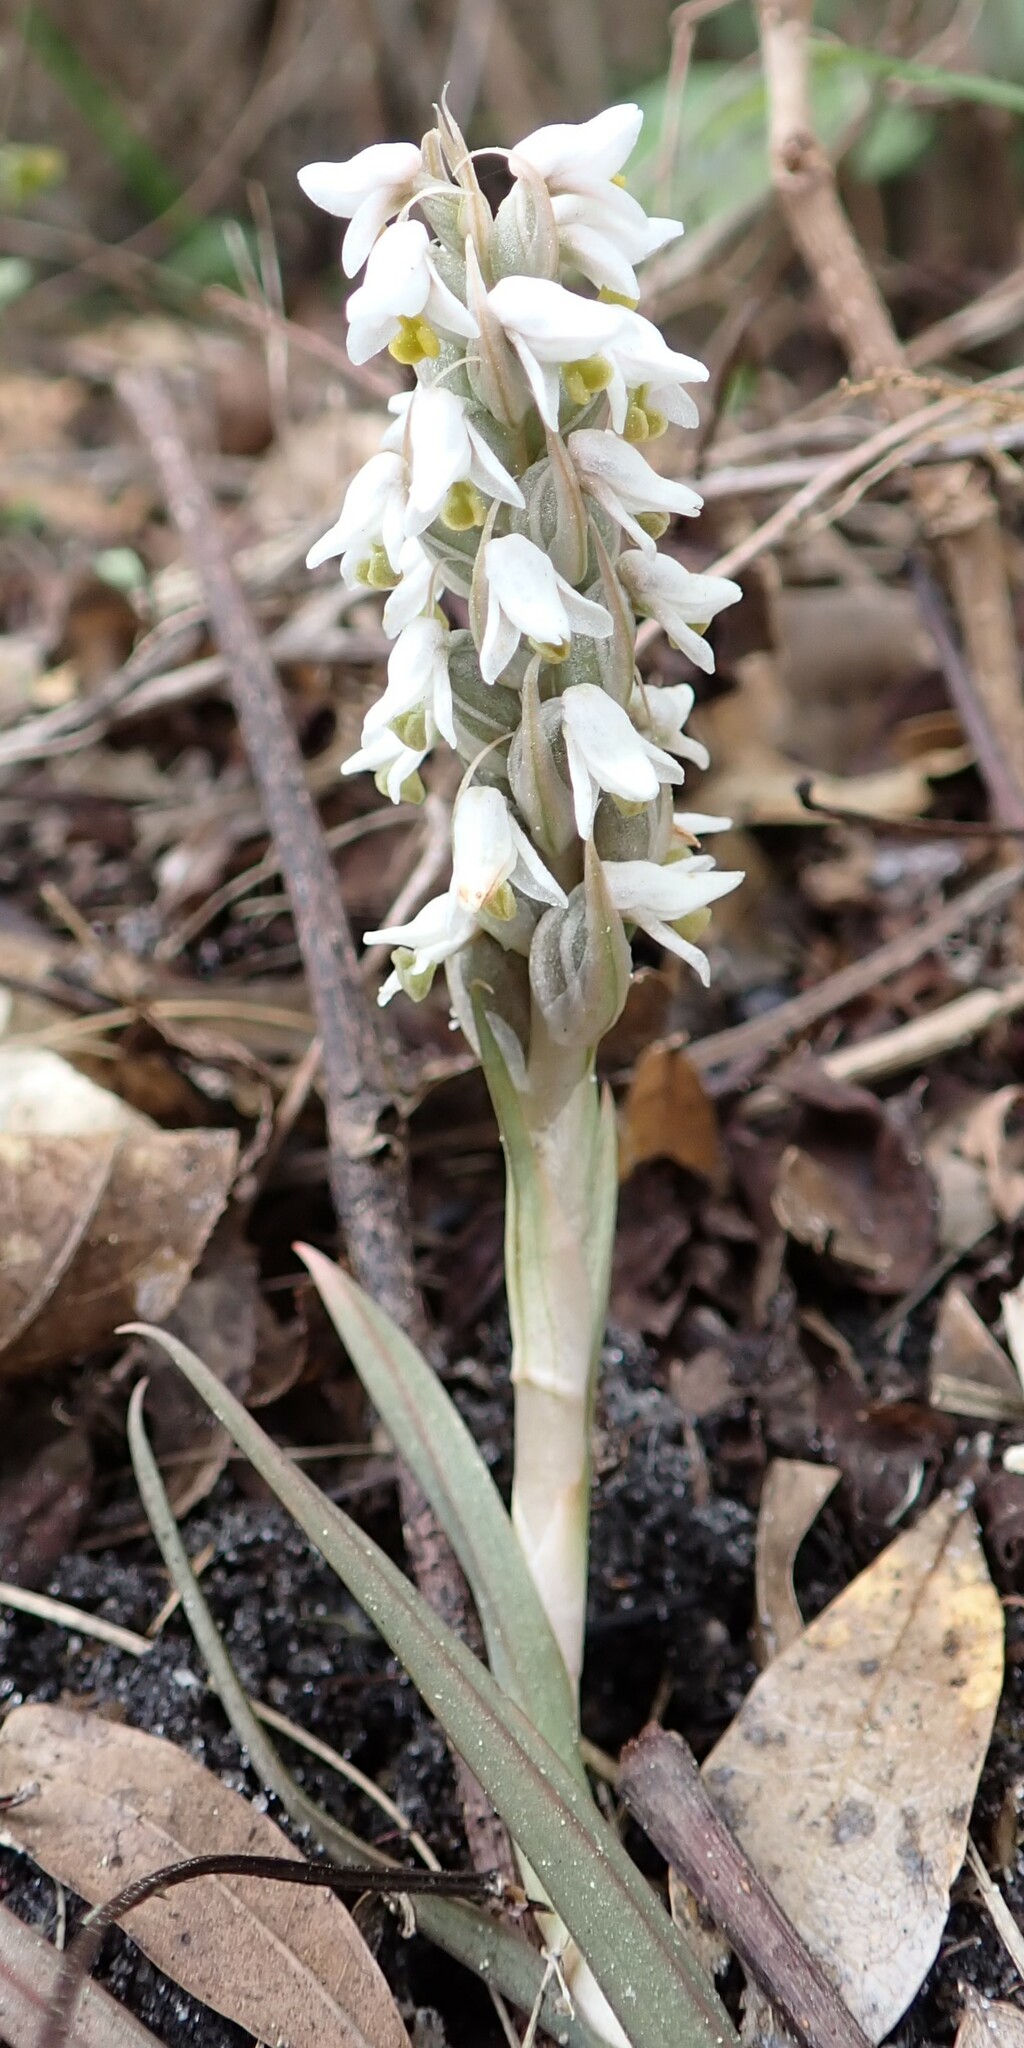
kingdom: Plantae
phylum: Tracheophyta
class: Liliopsida
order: Asparagales
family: Orchidaceae
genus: Zeuxine
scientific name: Zeuxine strateumatica
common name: Soldier's orchid
